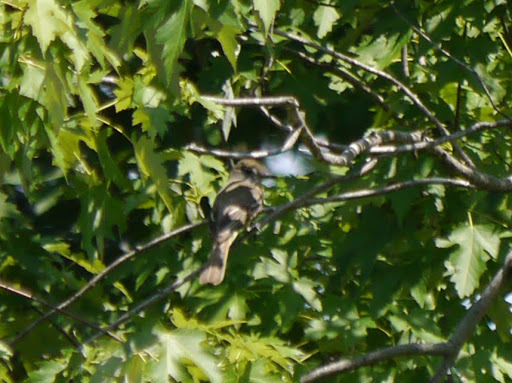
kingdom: Animalia
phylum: Chordata
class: Aves
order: Passeriformes
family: Tyrannidae
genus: Myiarchus
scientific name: Myiarchus crinitus
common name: Great crested flycatcher
